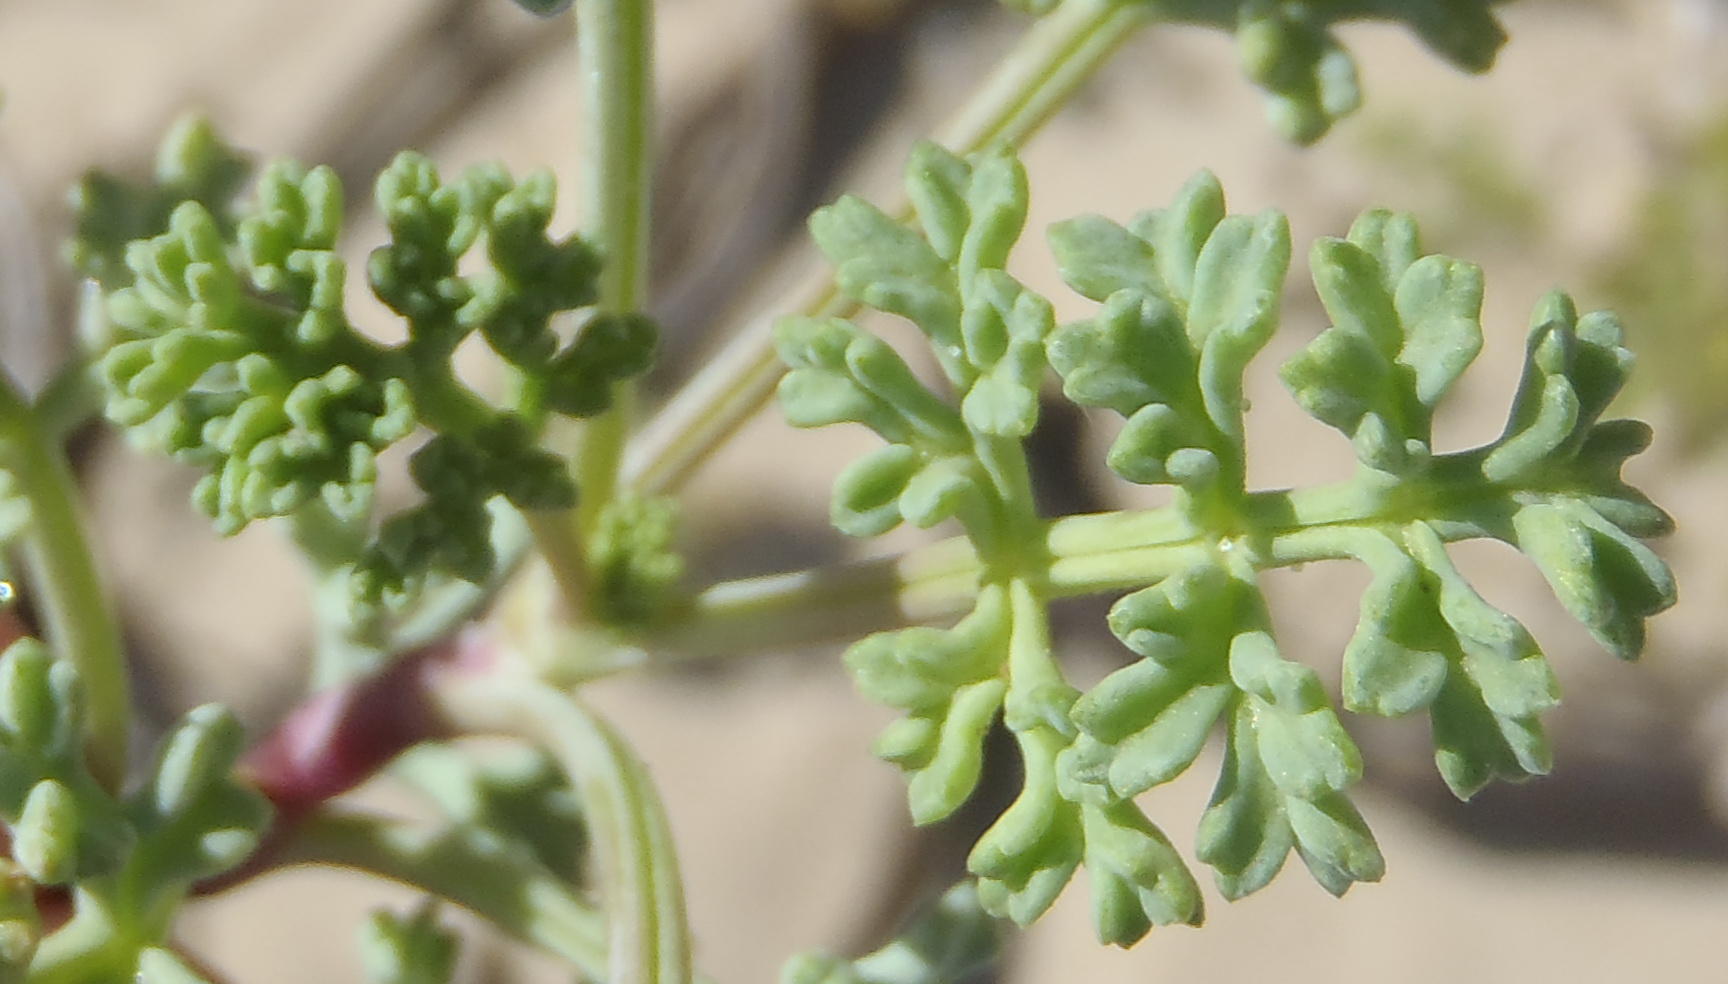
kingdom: Plantae
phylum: Tracheophyta
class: Magnoliopsida
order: Apiales
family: Apiaceae
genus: Dasispermum
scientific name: Dasispermum suffruticosum
